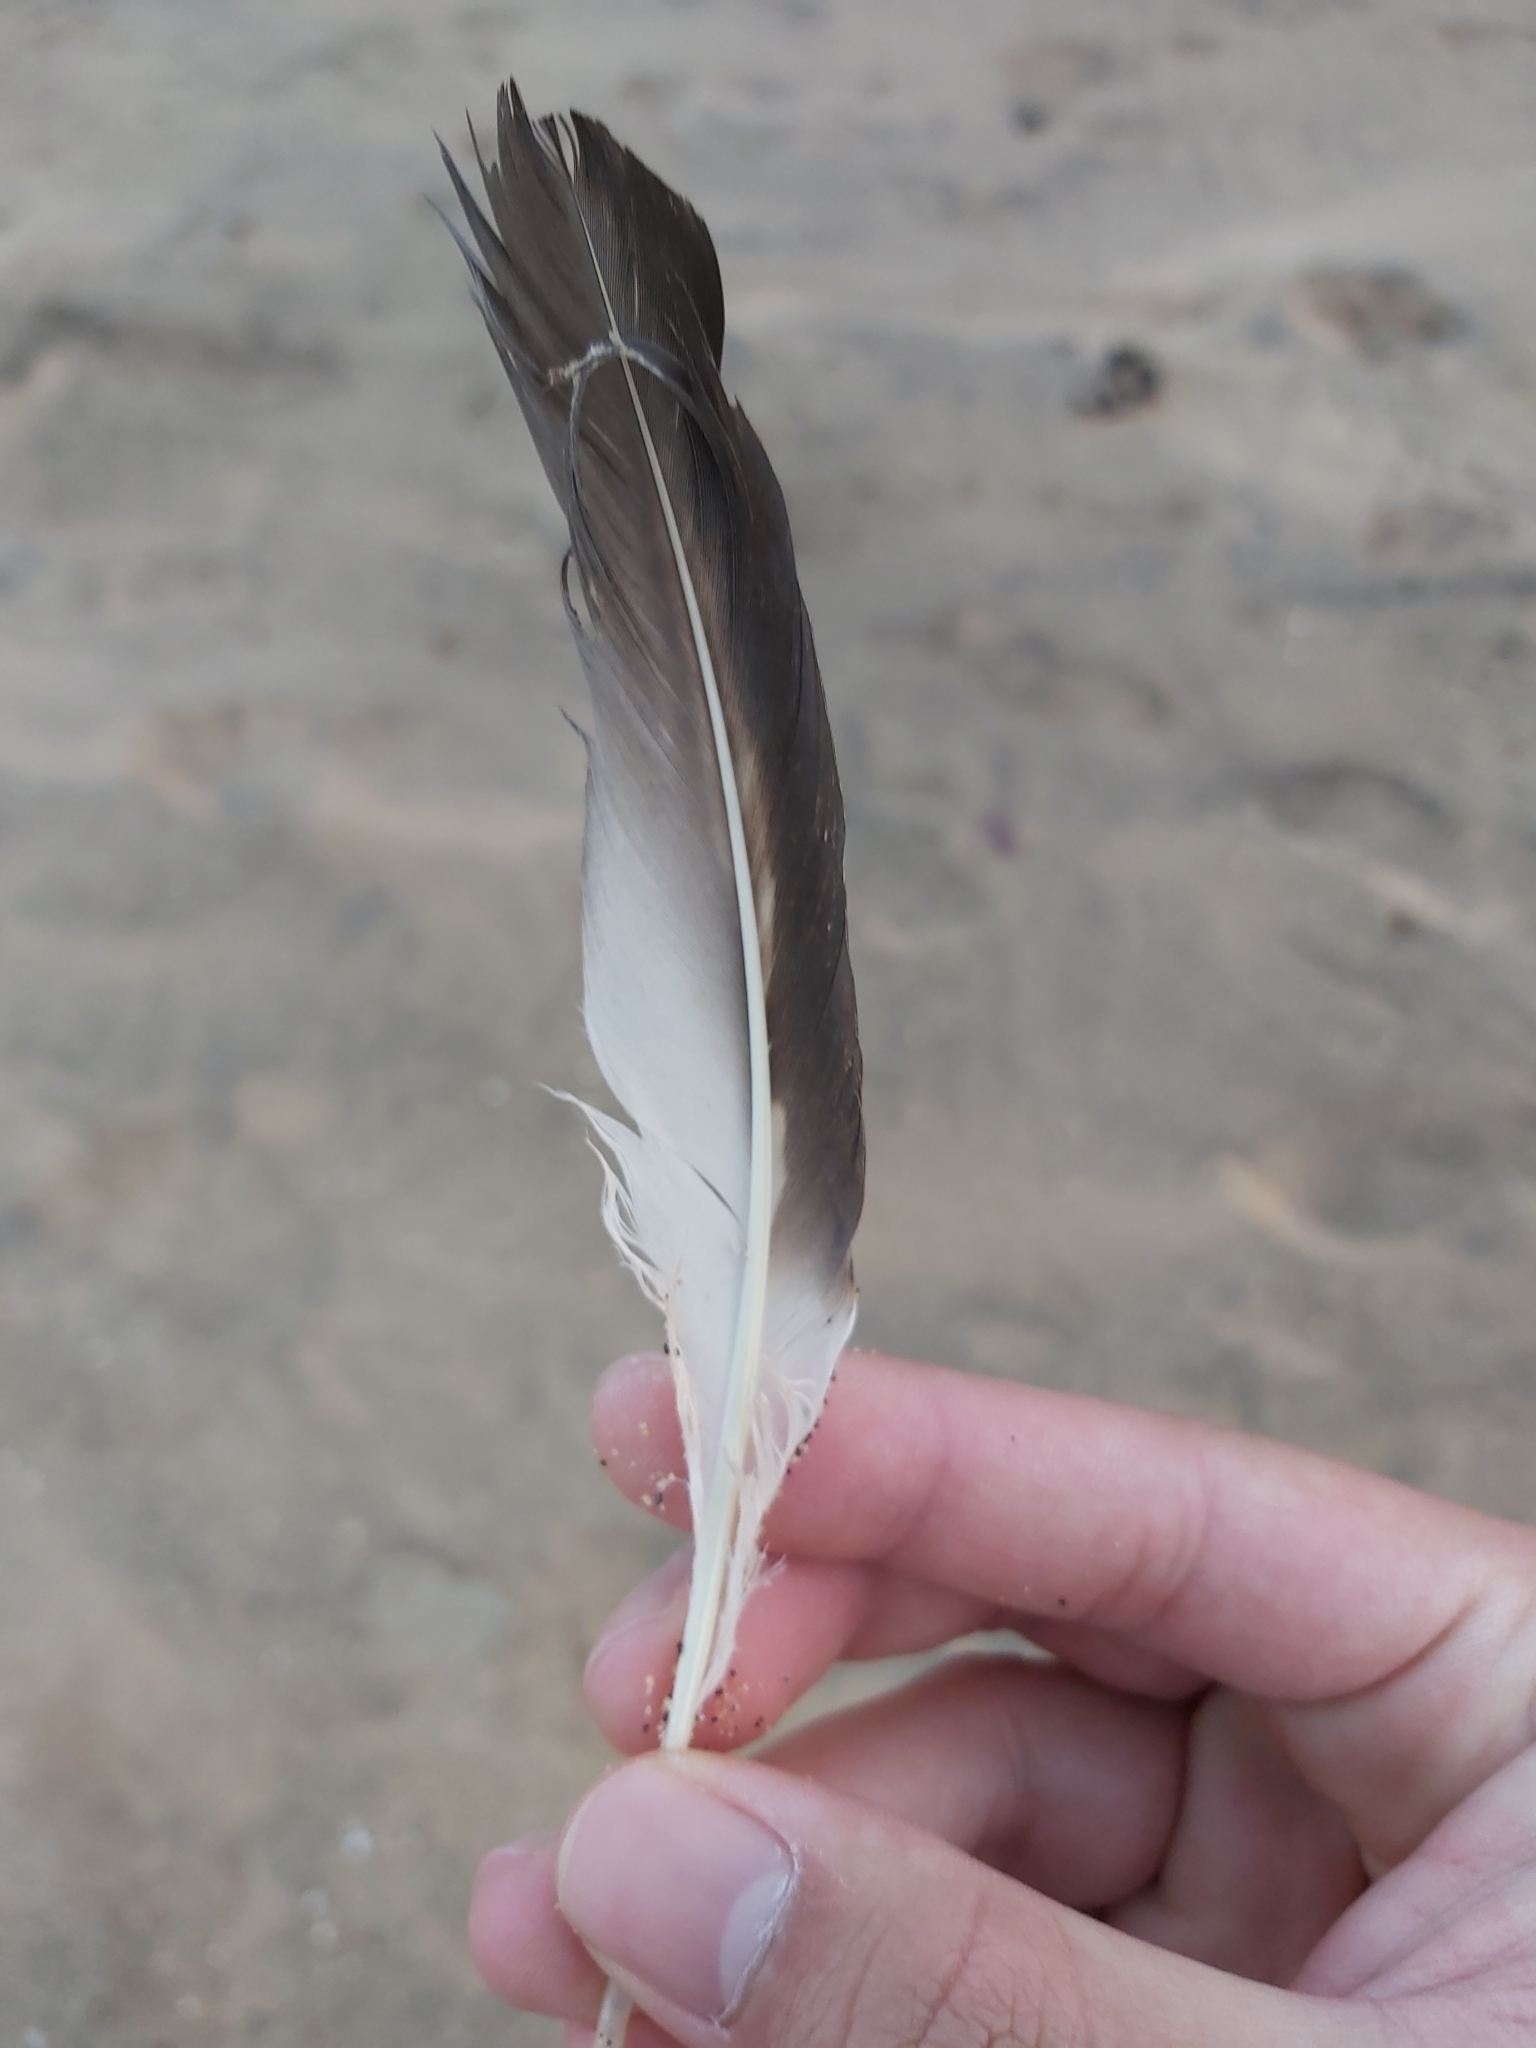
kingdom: Animalia
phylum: Chordata
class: Aves
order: Suliformes
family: Sulidae
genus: Morus
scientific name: Morus serrator
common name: Australasian gannet
